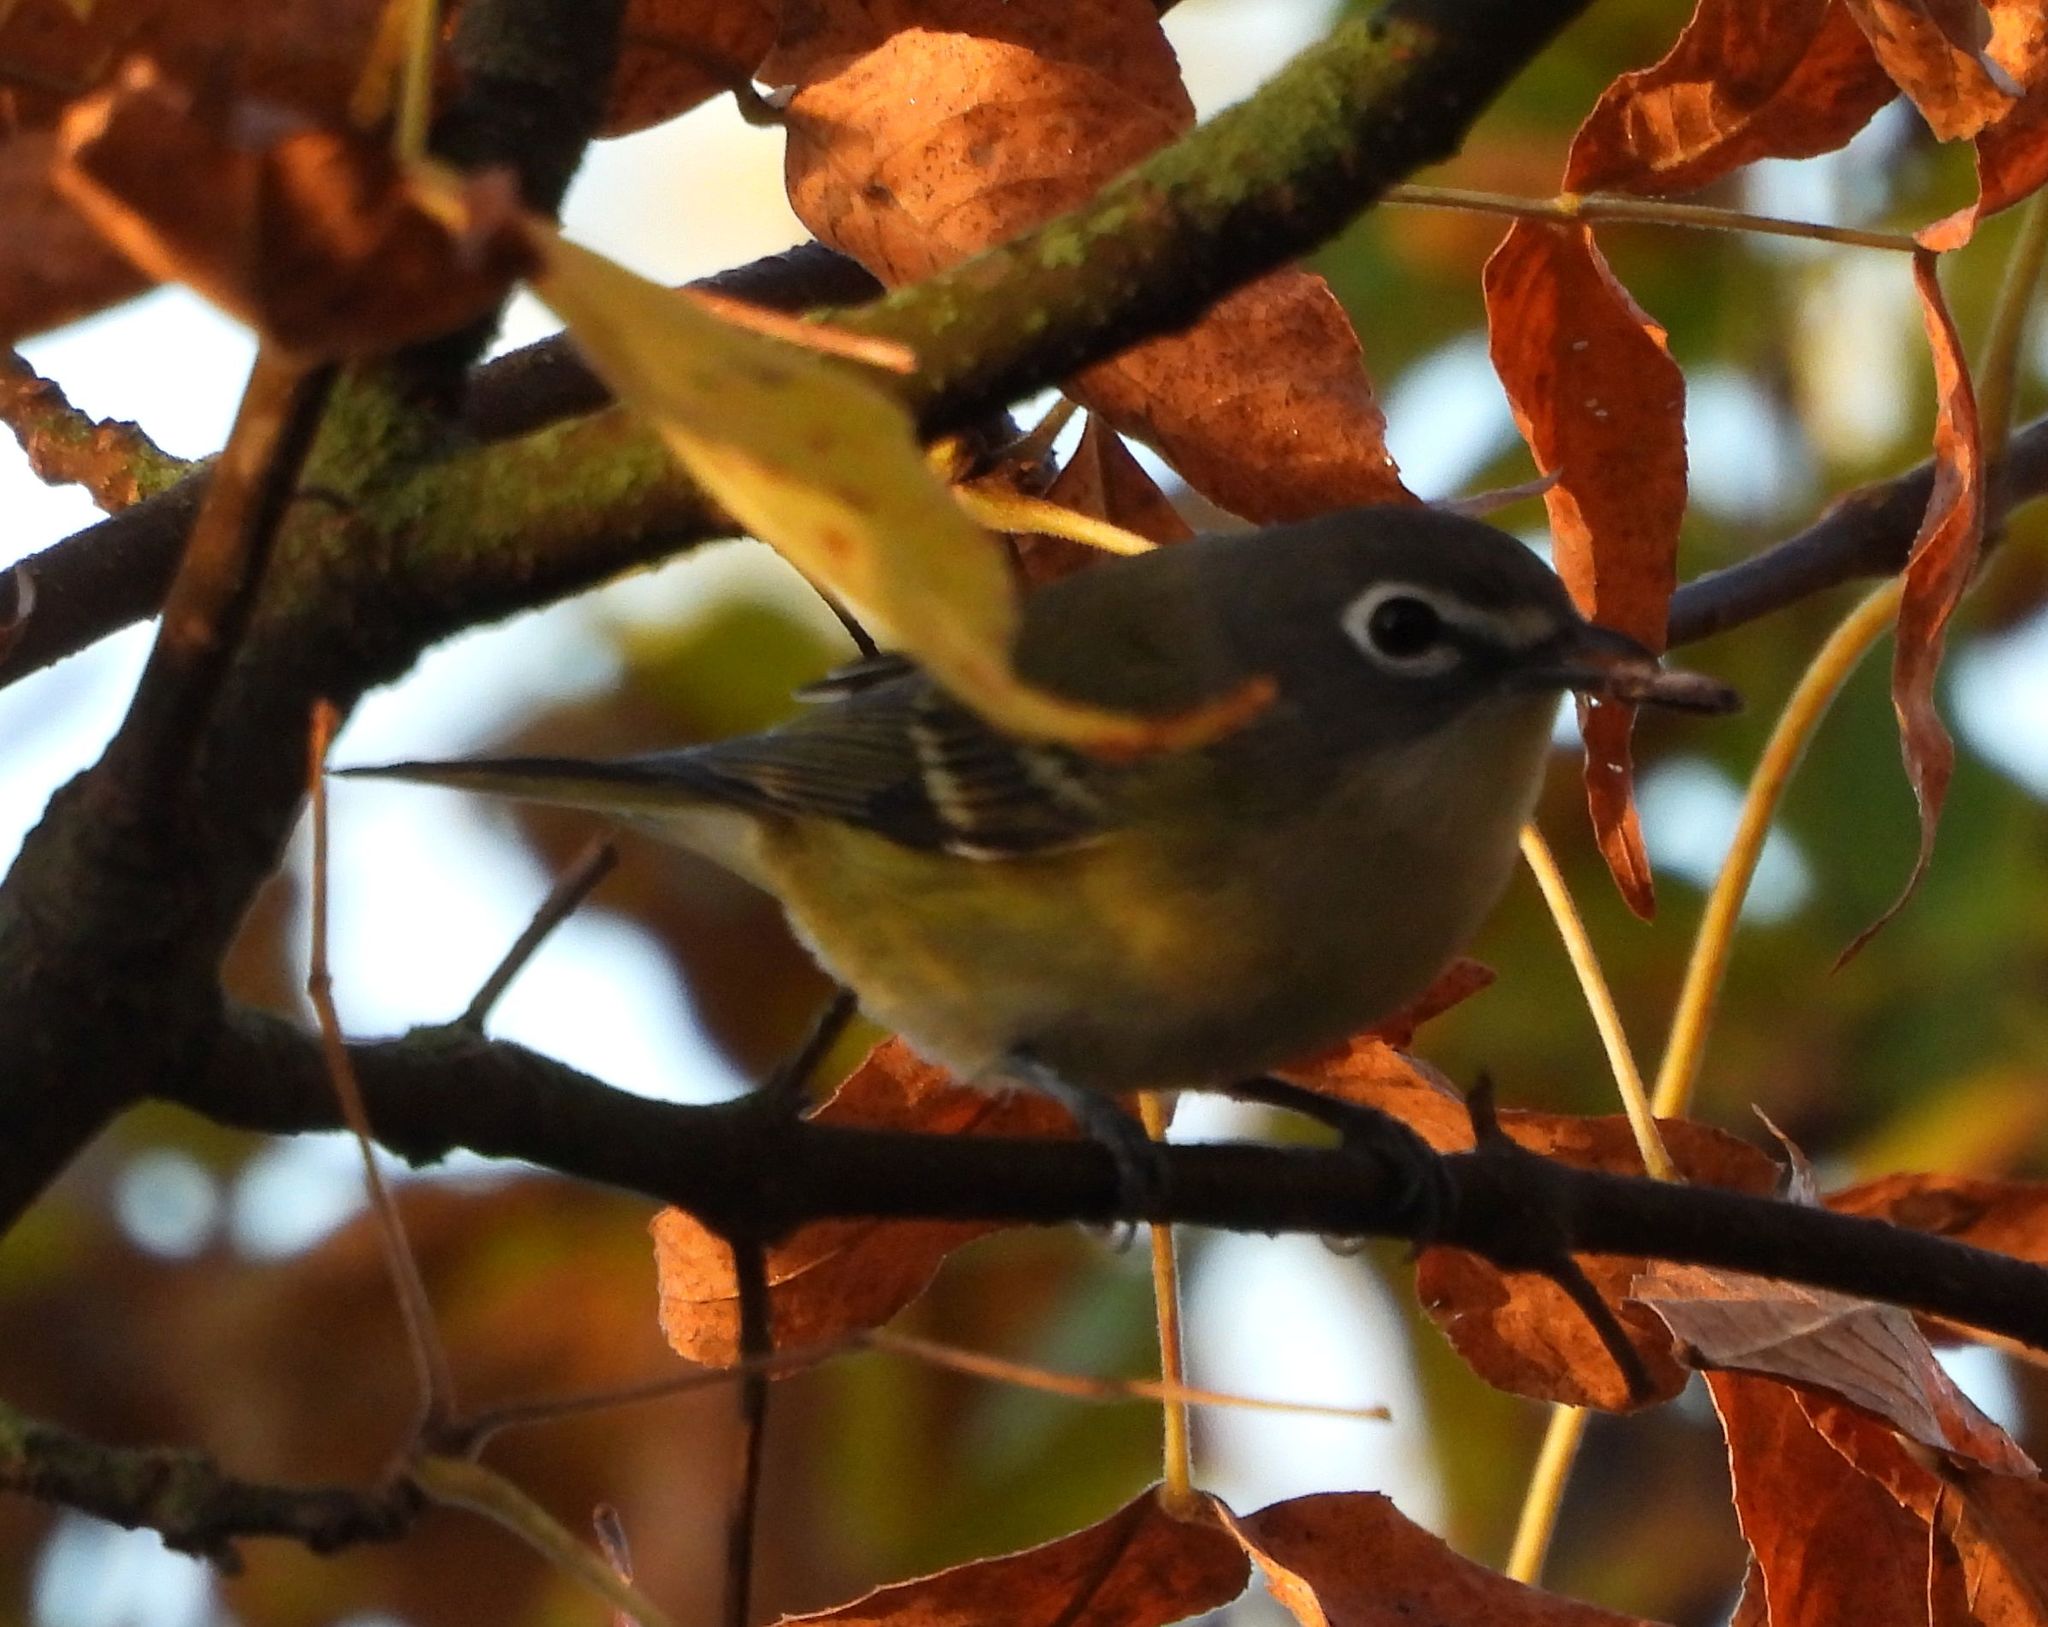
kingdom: Animalia
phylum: Chordata
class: Aves
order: Passeriformes
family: Vireonidae
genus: Vireo
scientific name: Vireo solitarius
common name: Blue-headed vireo
